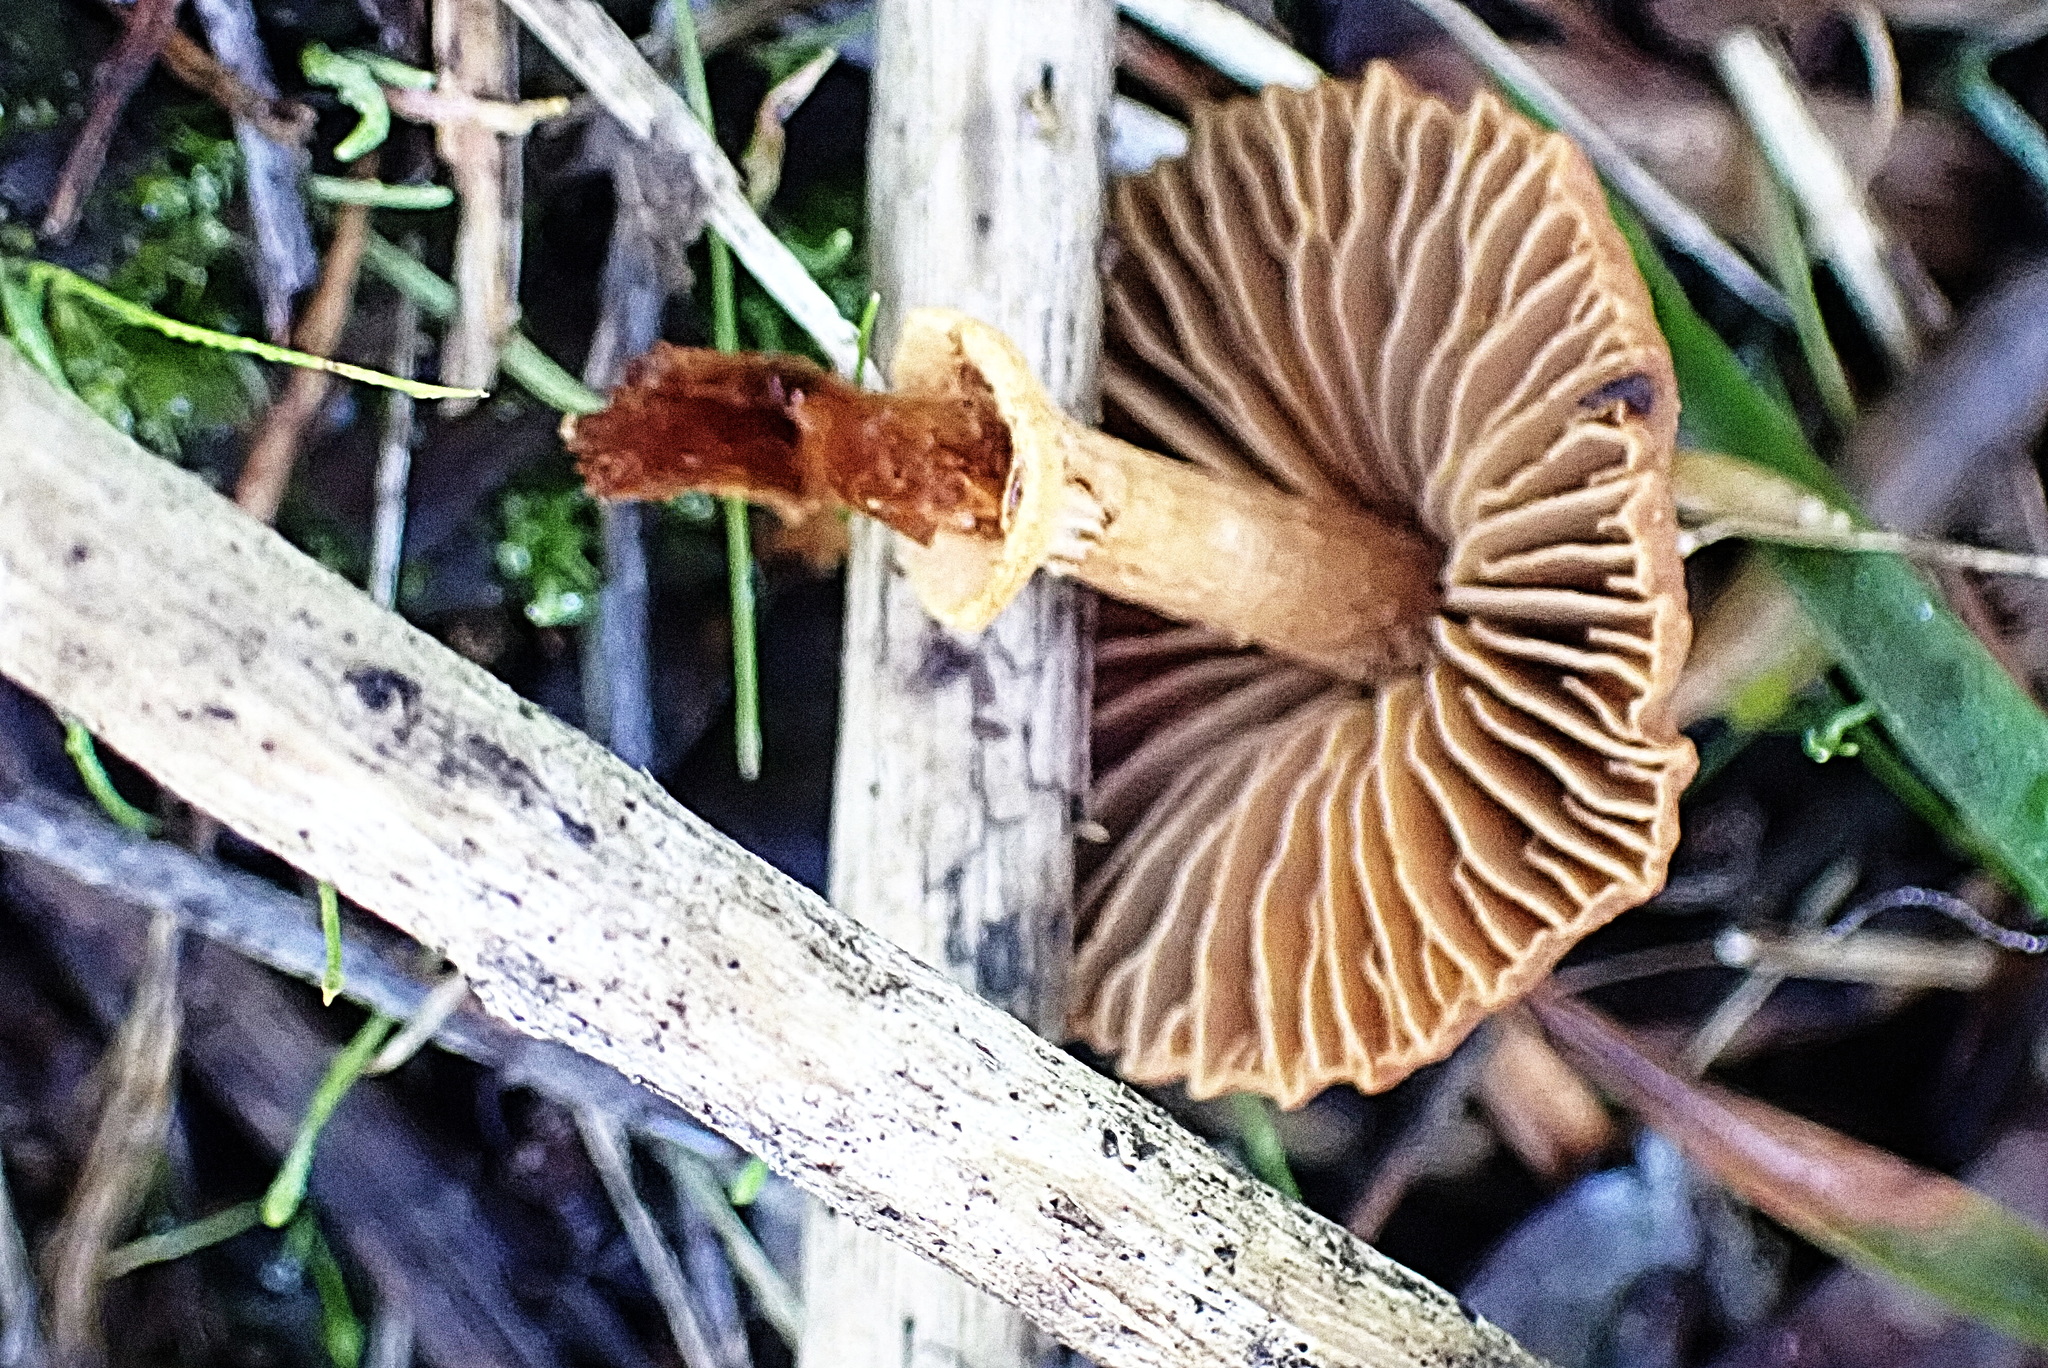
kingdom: Fungi
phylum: Basidiomycota
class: Agaricomycetes
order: Agaricales
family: Hydnangiaceae
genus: Laccaria
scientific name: Laccaria laccata
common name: Deceiver
